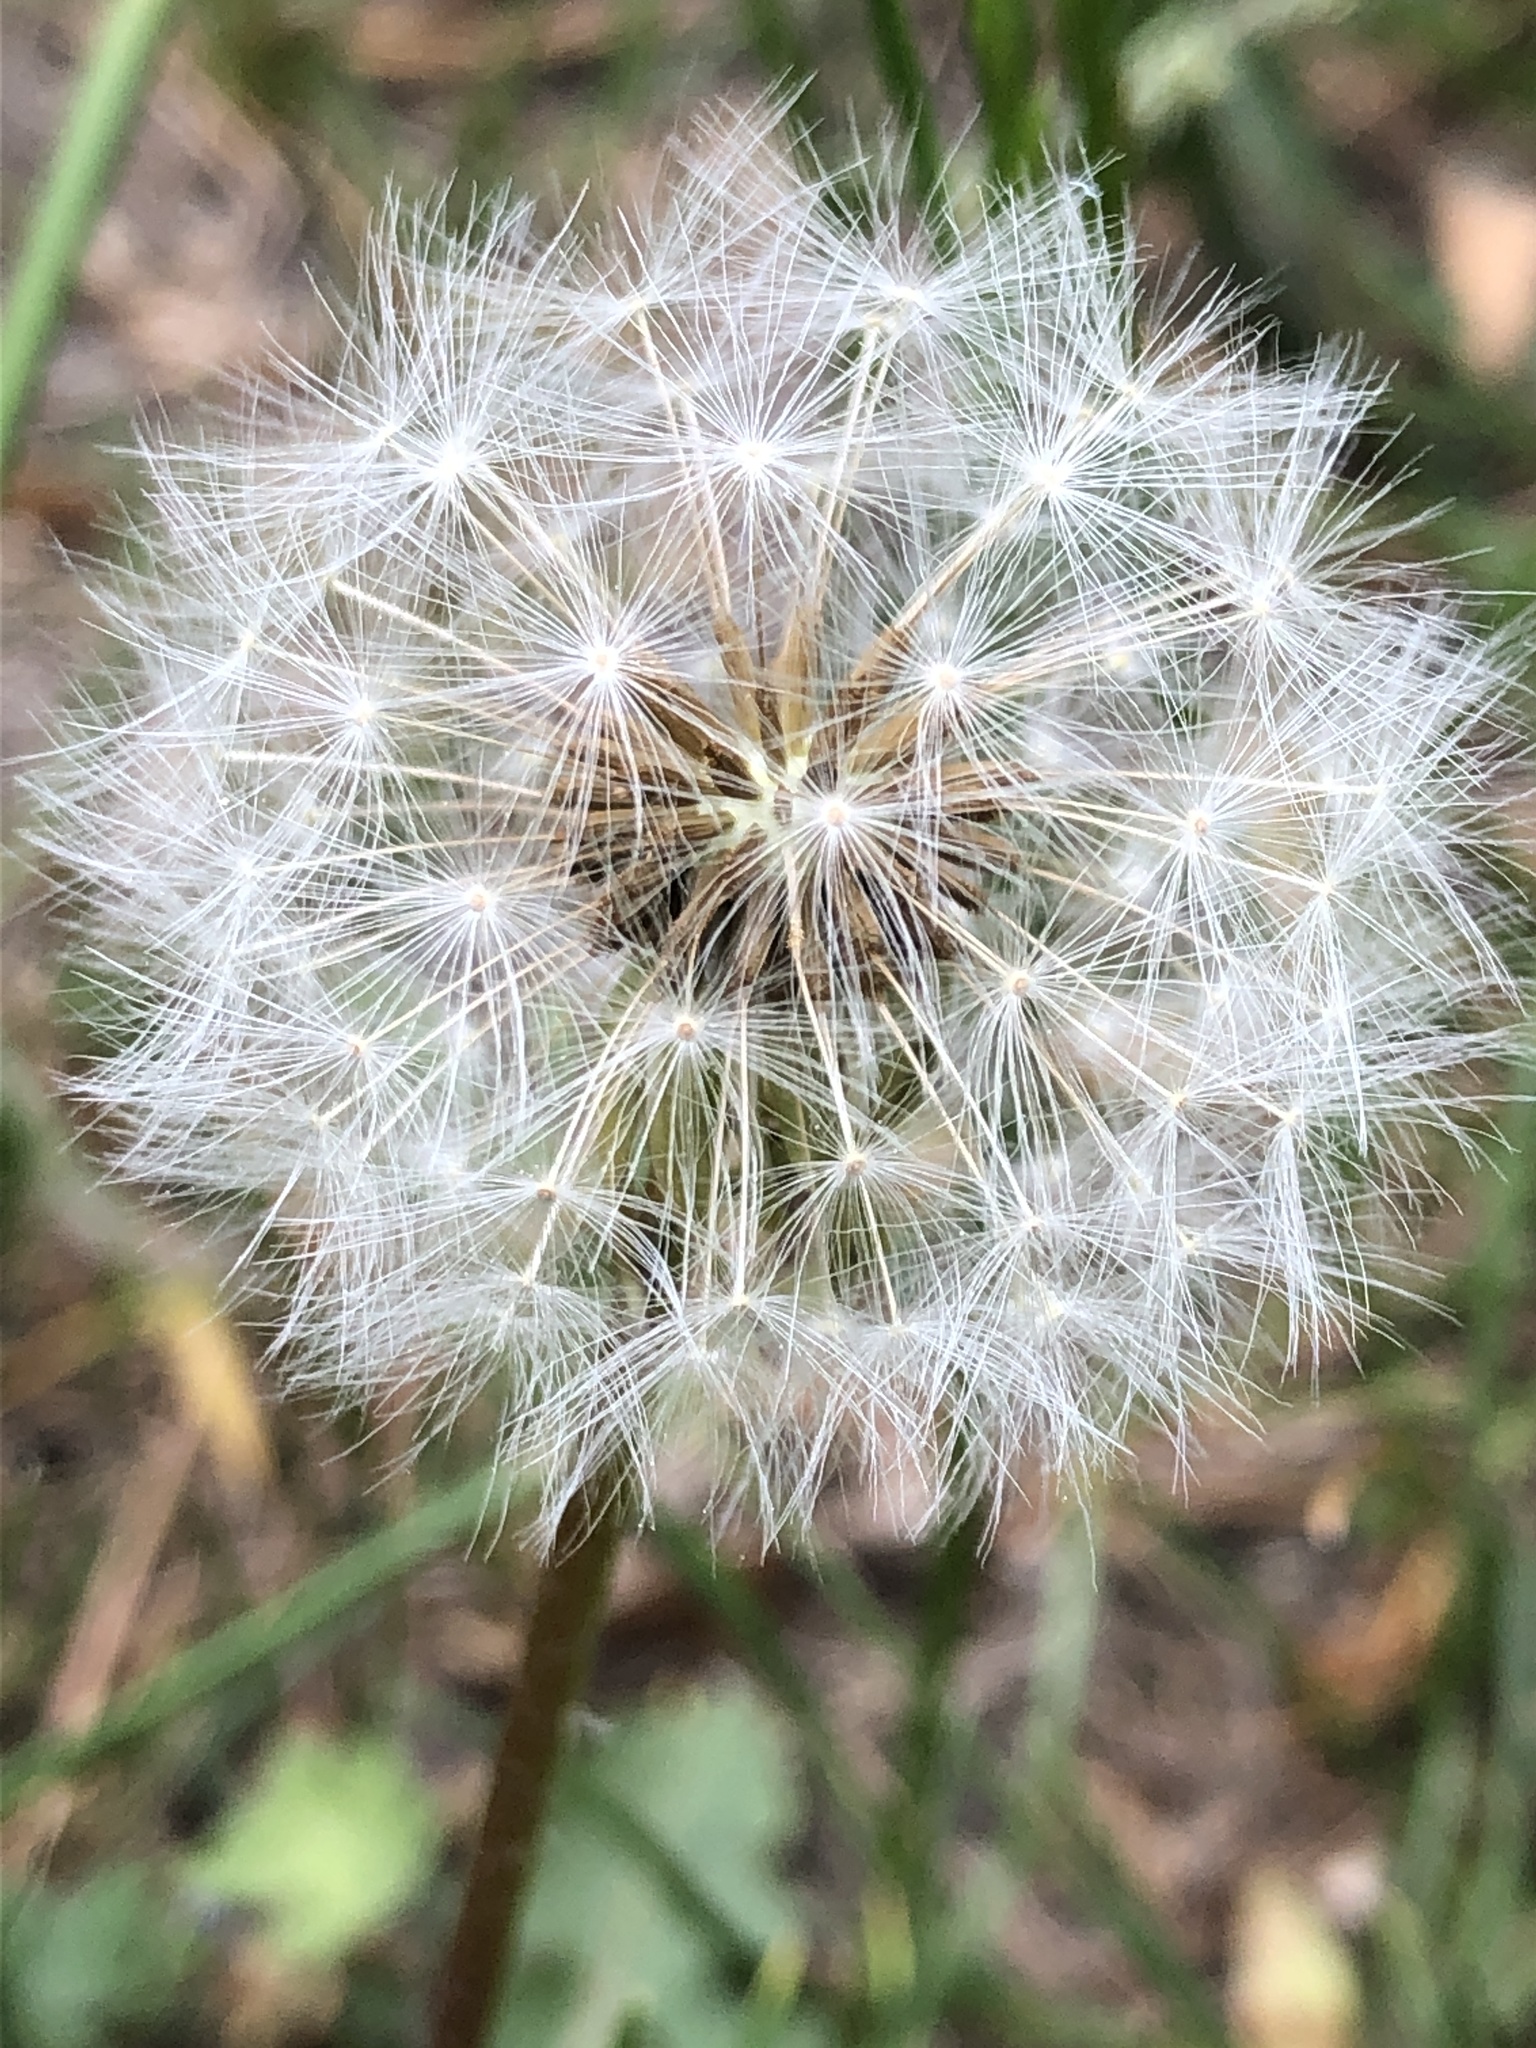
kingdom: Plantae
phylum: Tracheophyta
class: Magnoliopsida
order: Asterales
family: Asteraceae
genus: Taraxacum
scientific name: Taraxacum officinale
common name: Common dandelion
